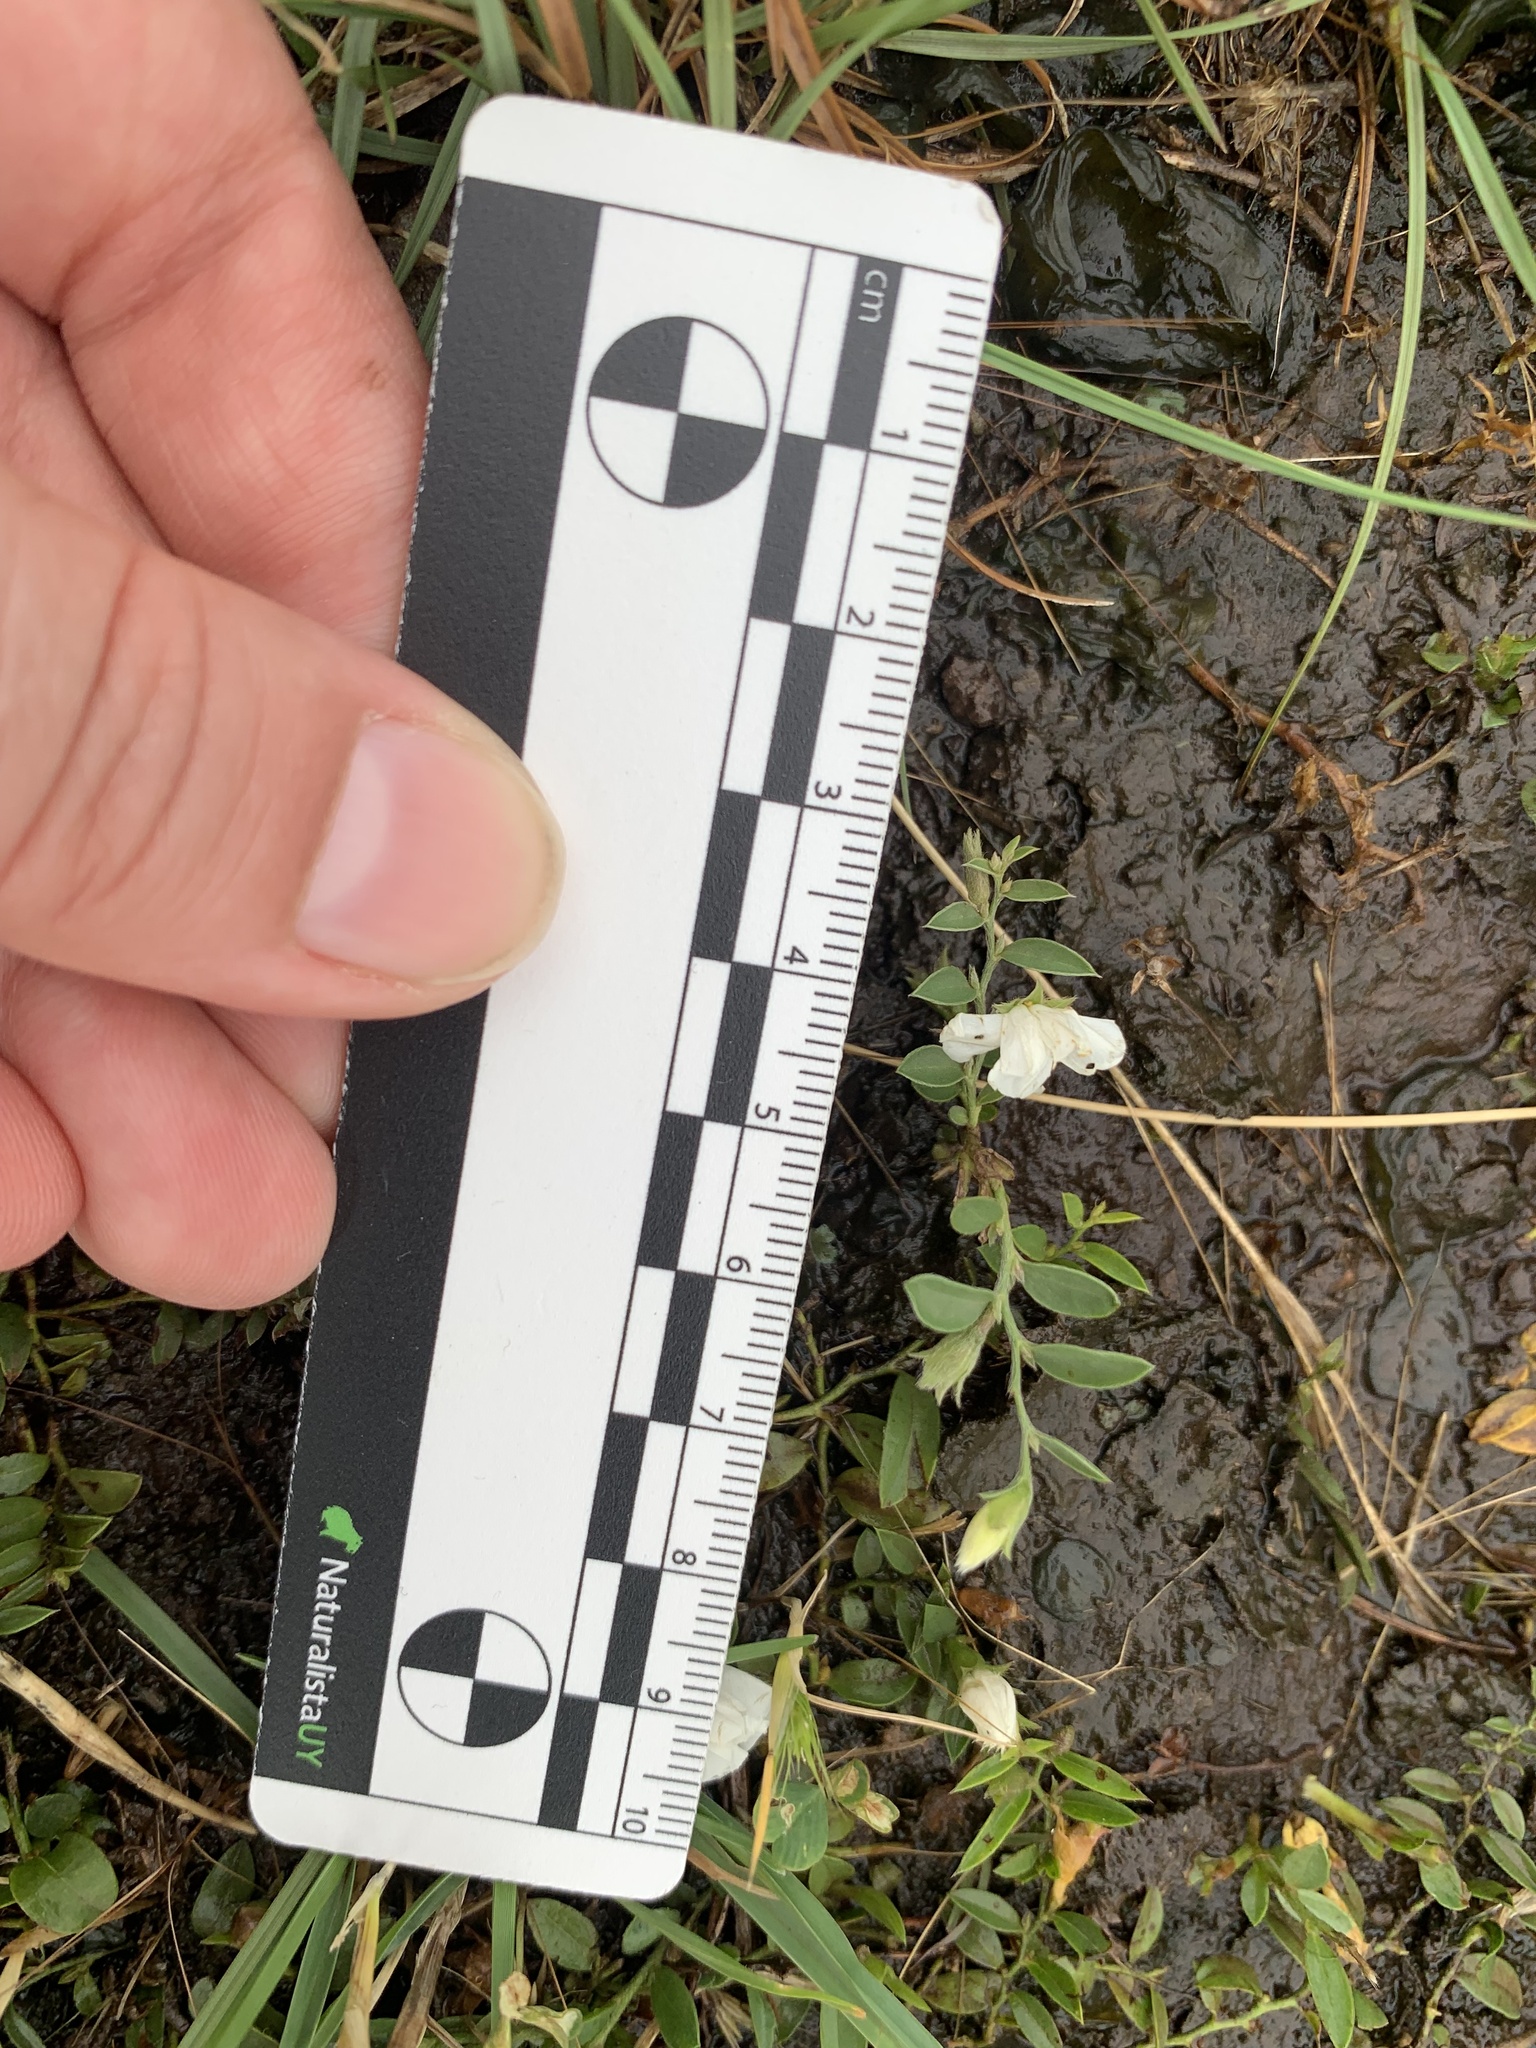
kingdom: Plantae
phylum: Tracheophyta
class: Magnoliopsida
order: Solanales
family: Convolvulaceae
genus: Evolvulus
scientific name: Evolvulus sericeus
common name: Blue dots
